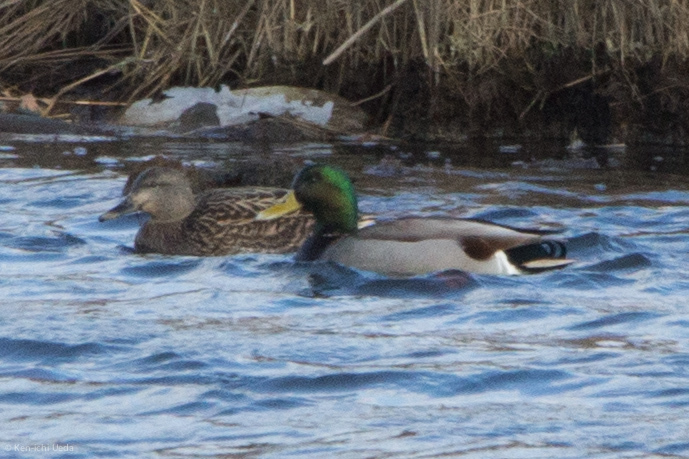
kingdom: Animalia
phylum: Chordata
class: Aves
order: Anseriformes
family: Anatidae
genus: Anas
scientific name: Anas platyrhynchos
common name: Mallard
